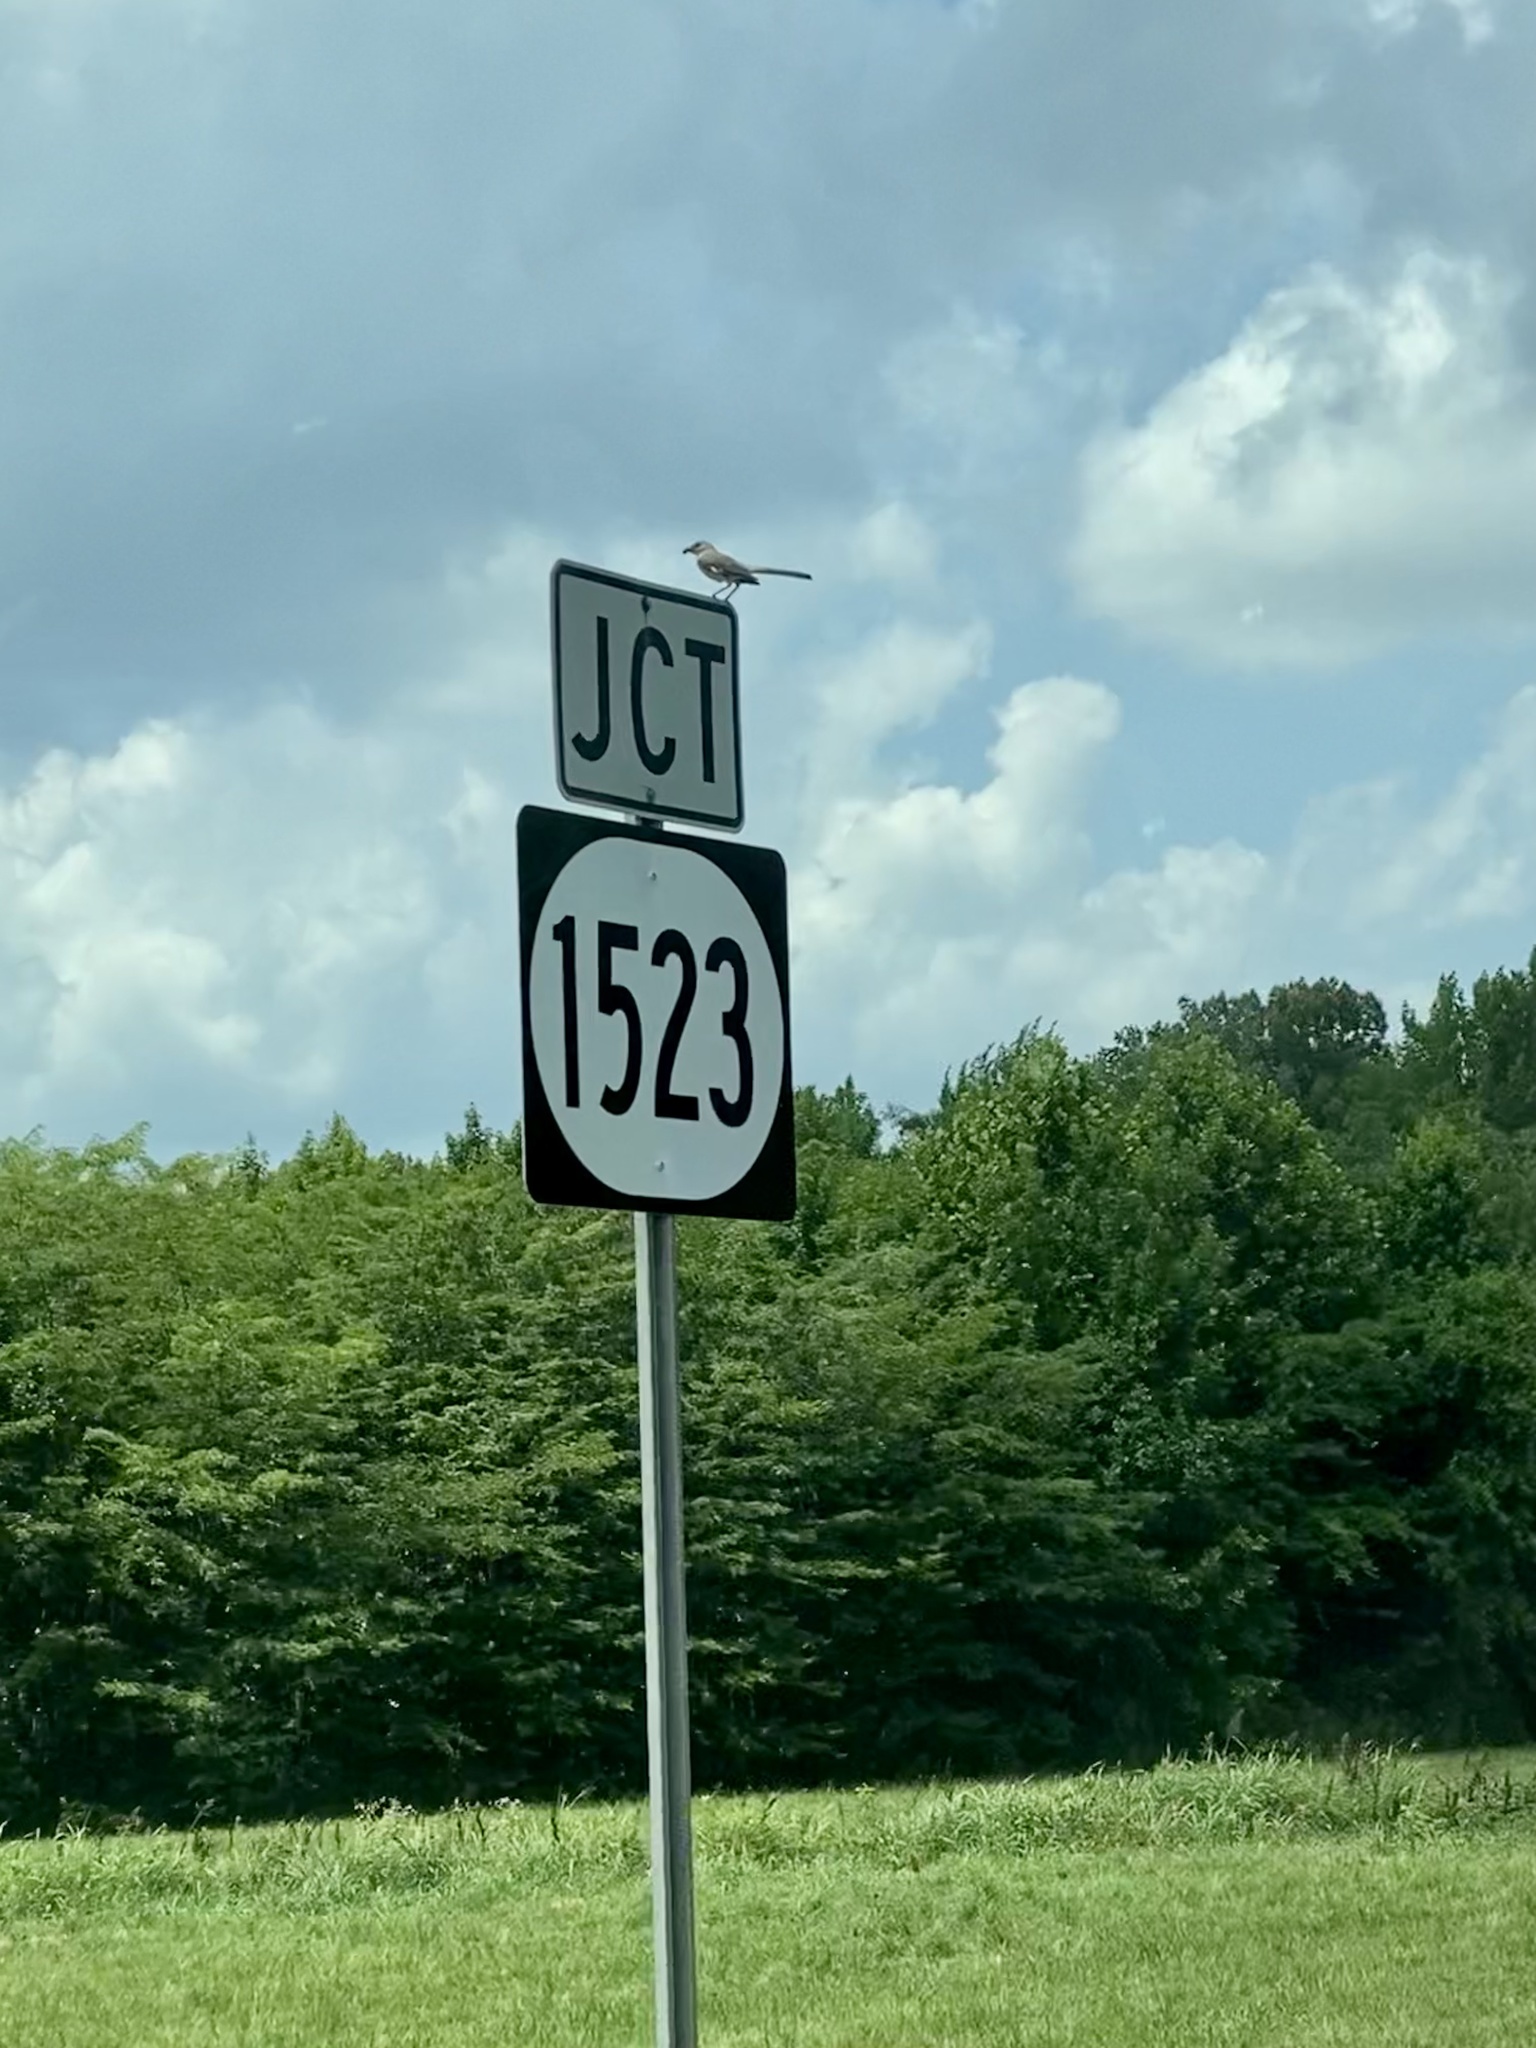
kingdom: Animalia
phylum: Chordata
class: Aves
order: Passeriformes
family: Mimidae
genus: Mimus
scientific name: Mimus polyglottos
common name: Northern mockingbird
